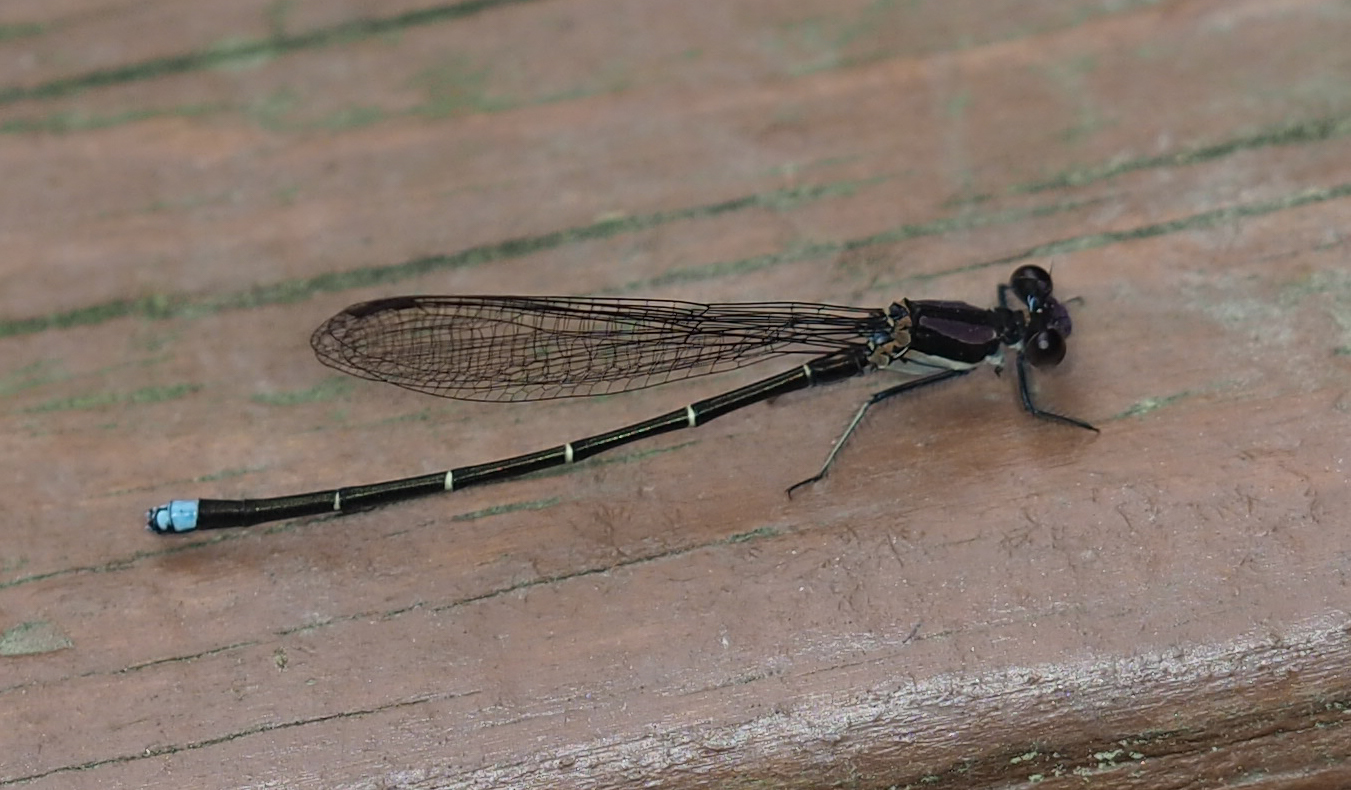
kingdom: Animalia
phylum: Arthropoda
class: Insecta
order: Odonata
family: Coenagrionidae
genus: Argia
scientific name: Argia tibialis
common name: Blue-tipped dancer
